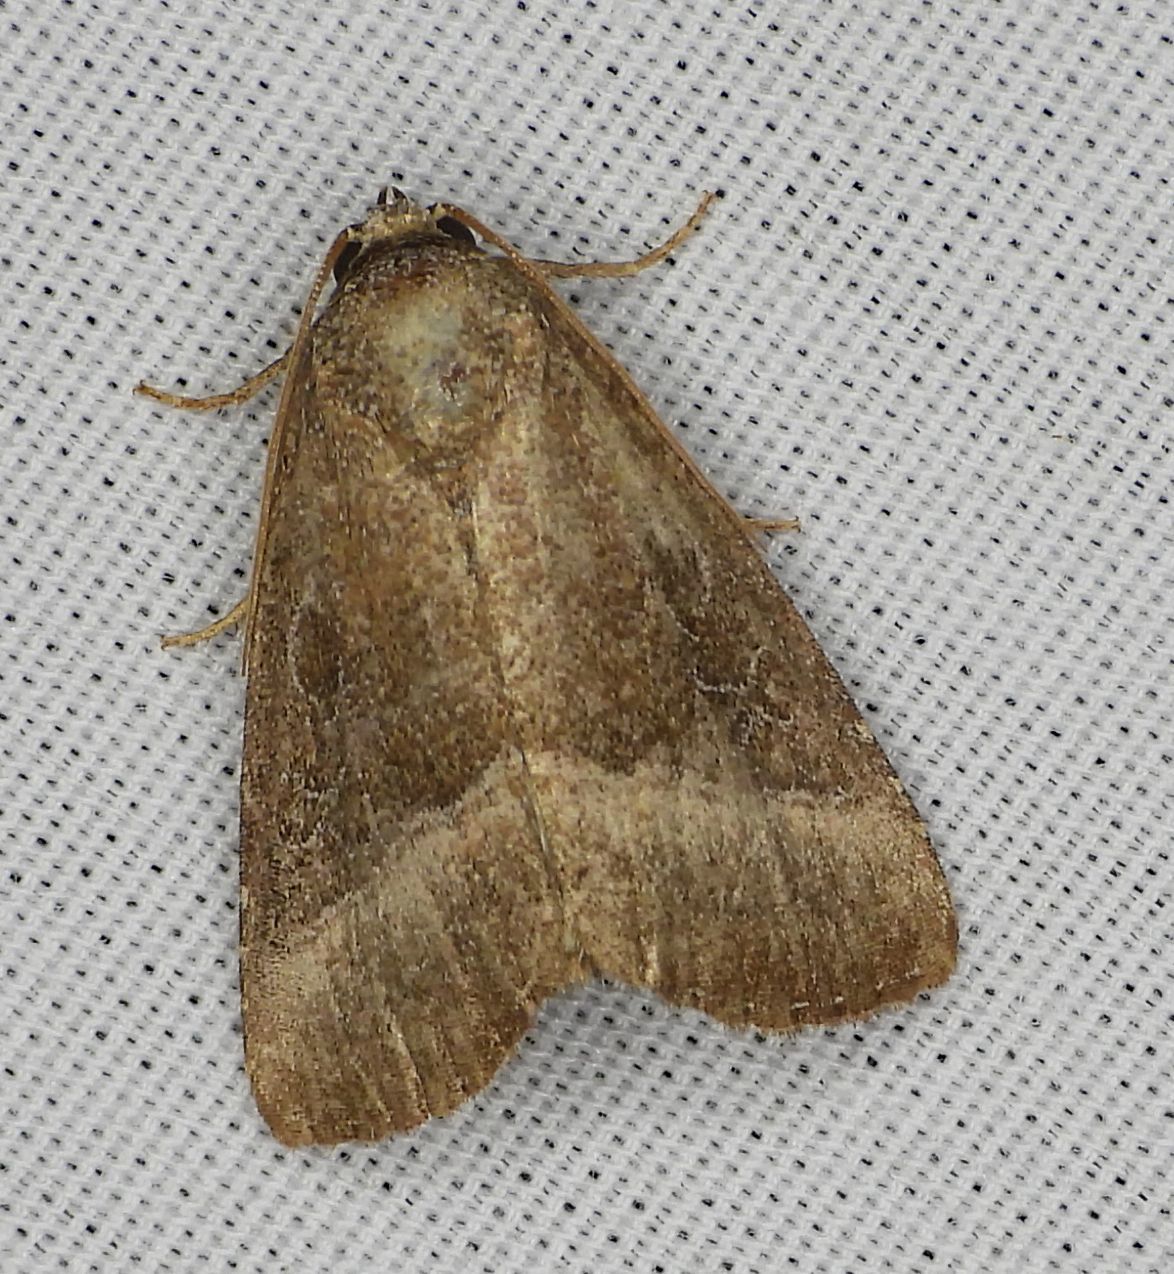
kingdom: Animalia
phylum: Arthropoda
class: Insecta
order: Lepidoptera
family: Noctuidae
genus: Ogdoconta
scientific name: Ogdoconta cinereola
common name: Common pinkband
